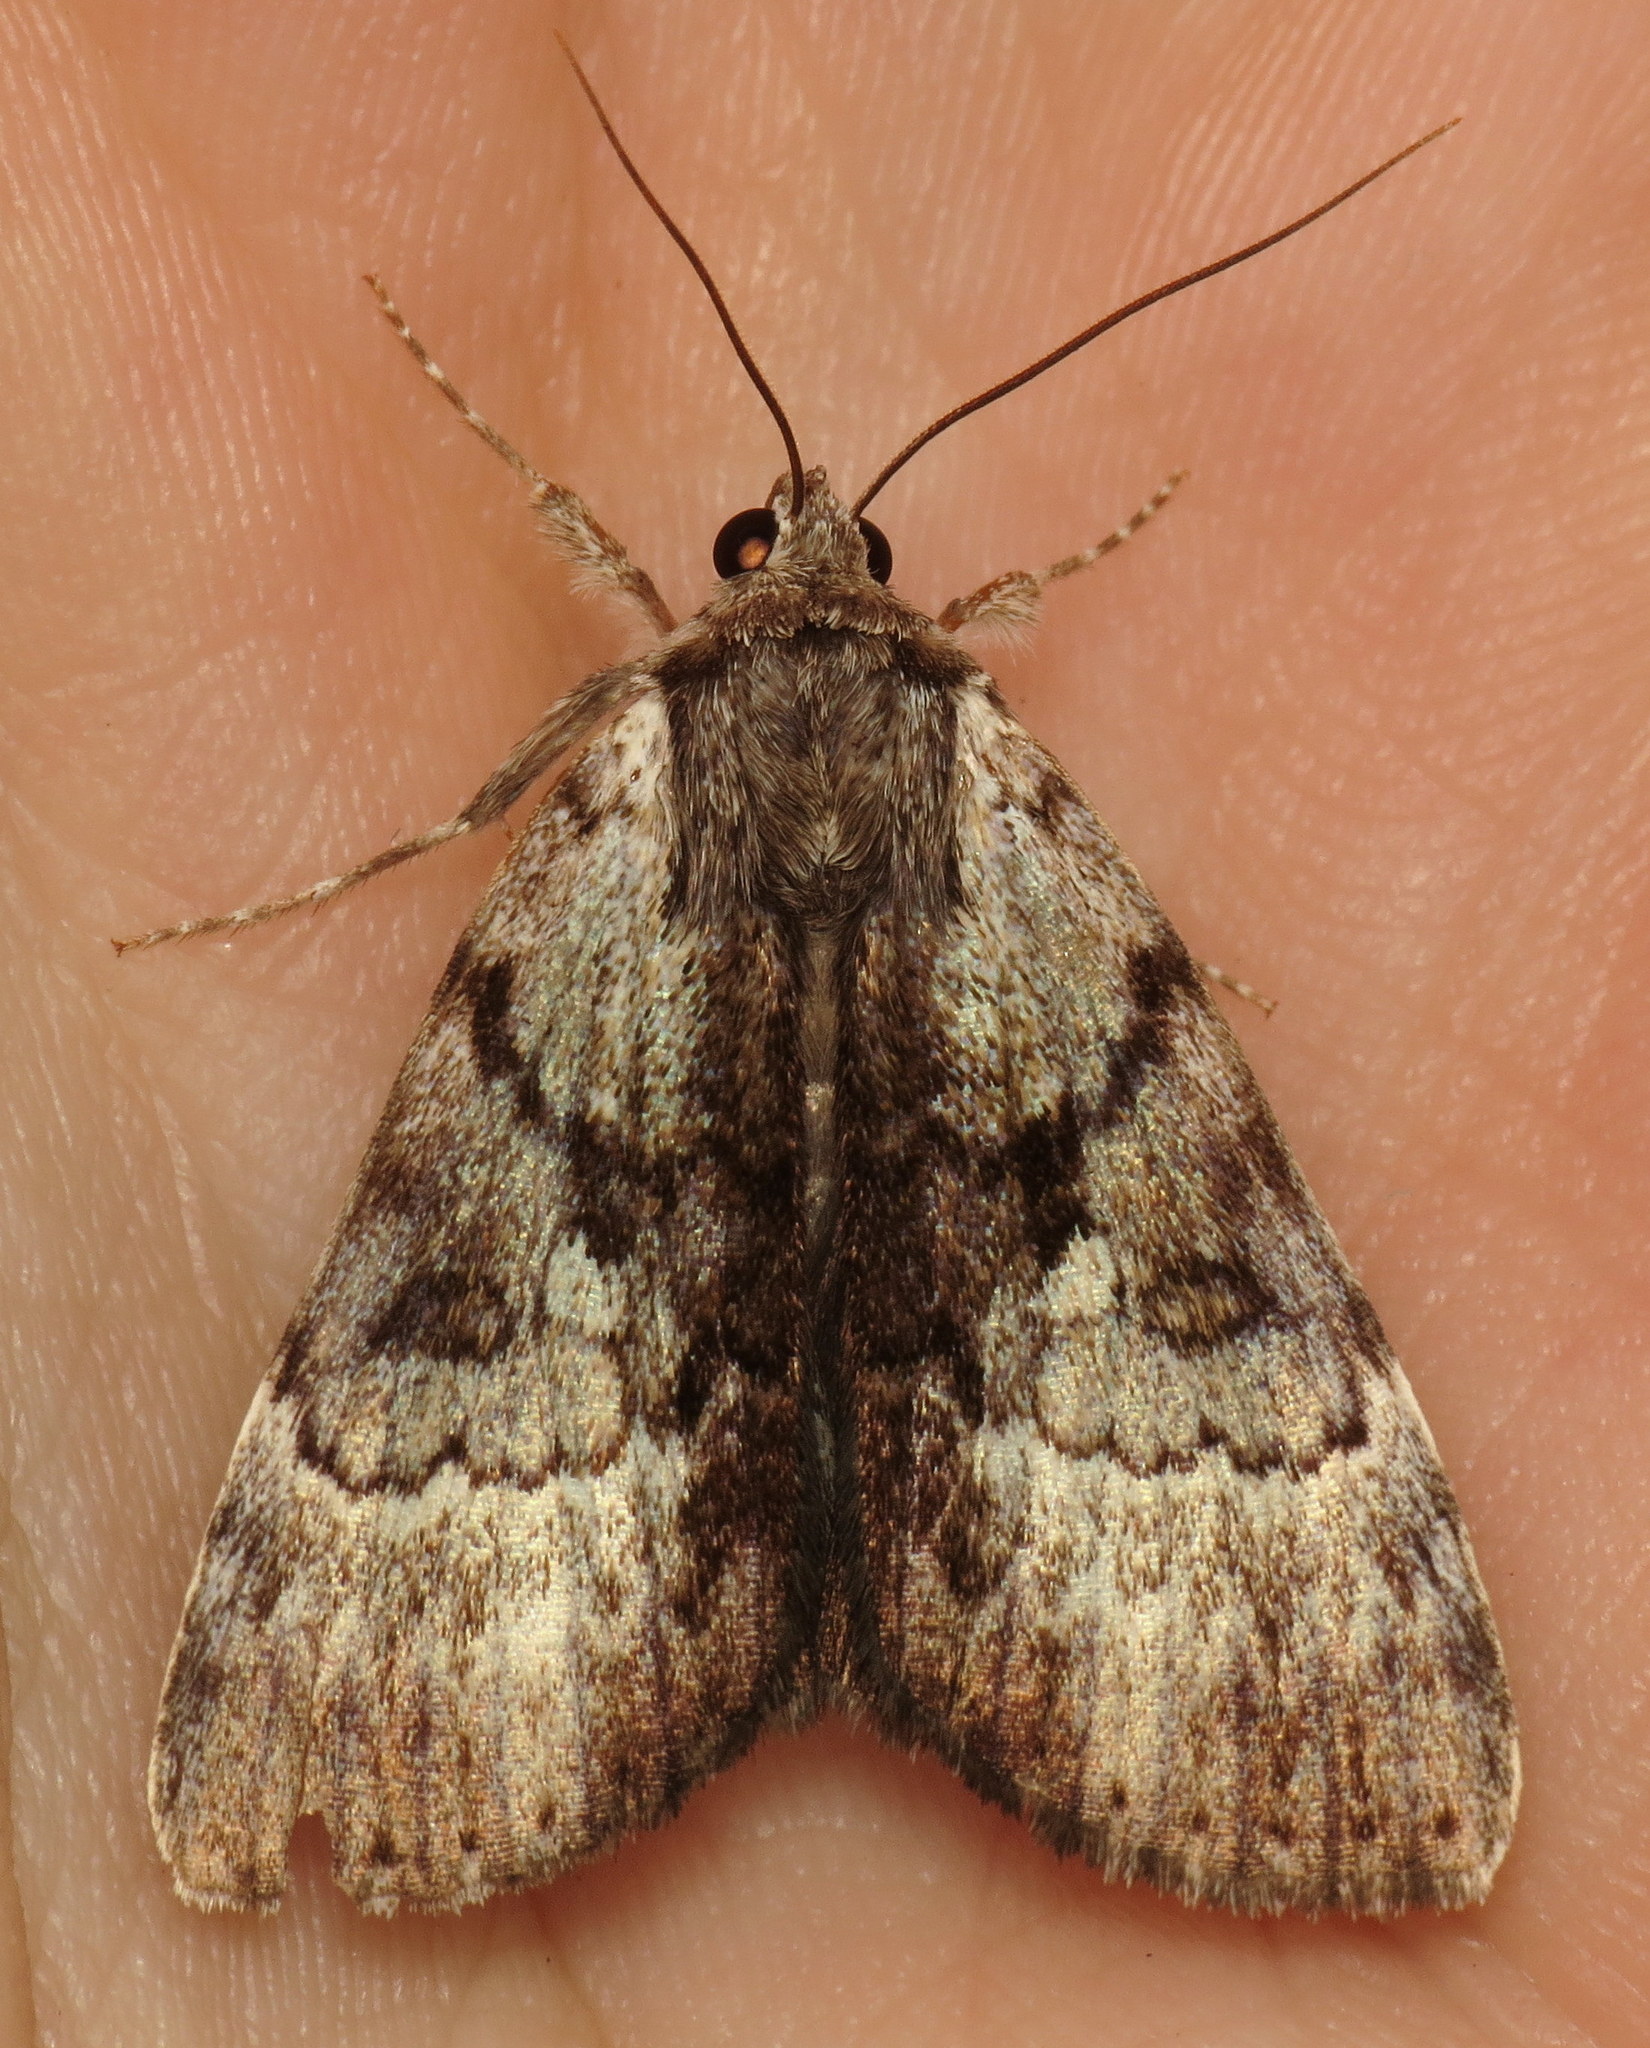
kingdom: Animalia
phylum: Arthropoda
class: Insecta
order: Lepidoptera
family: Erebidae
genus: Catocala
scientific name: Catocala andromedae
